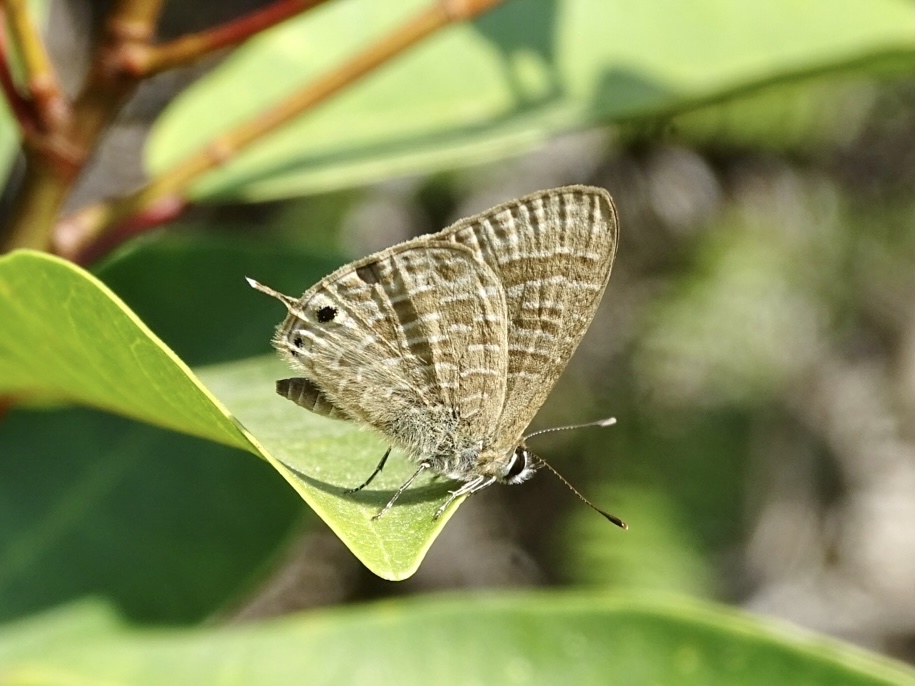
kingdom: Animalia
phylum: Arthropoda
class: Insecta
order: Lepidoptera
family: Lycaenidae
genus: Nacaduba
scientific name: Nacaduba kurava
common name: Transparent 6-line blue
